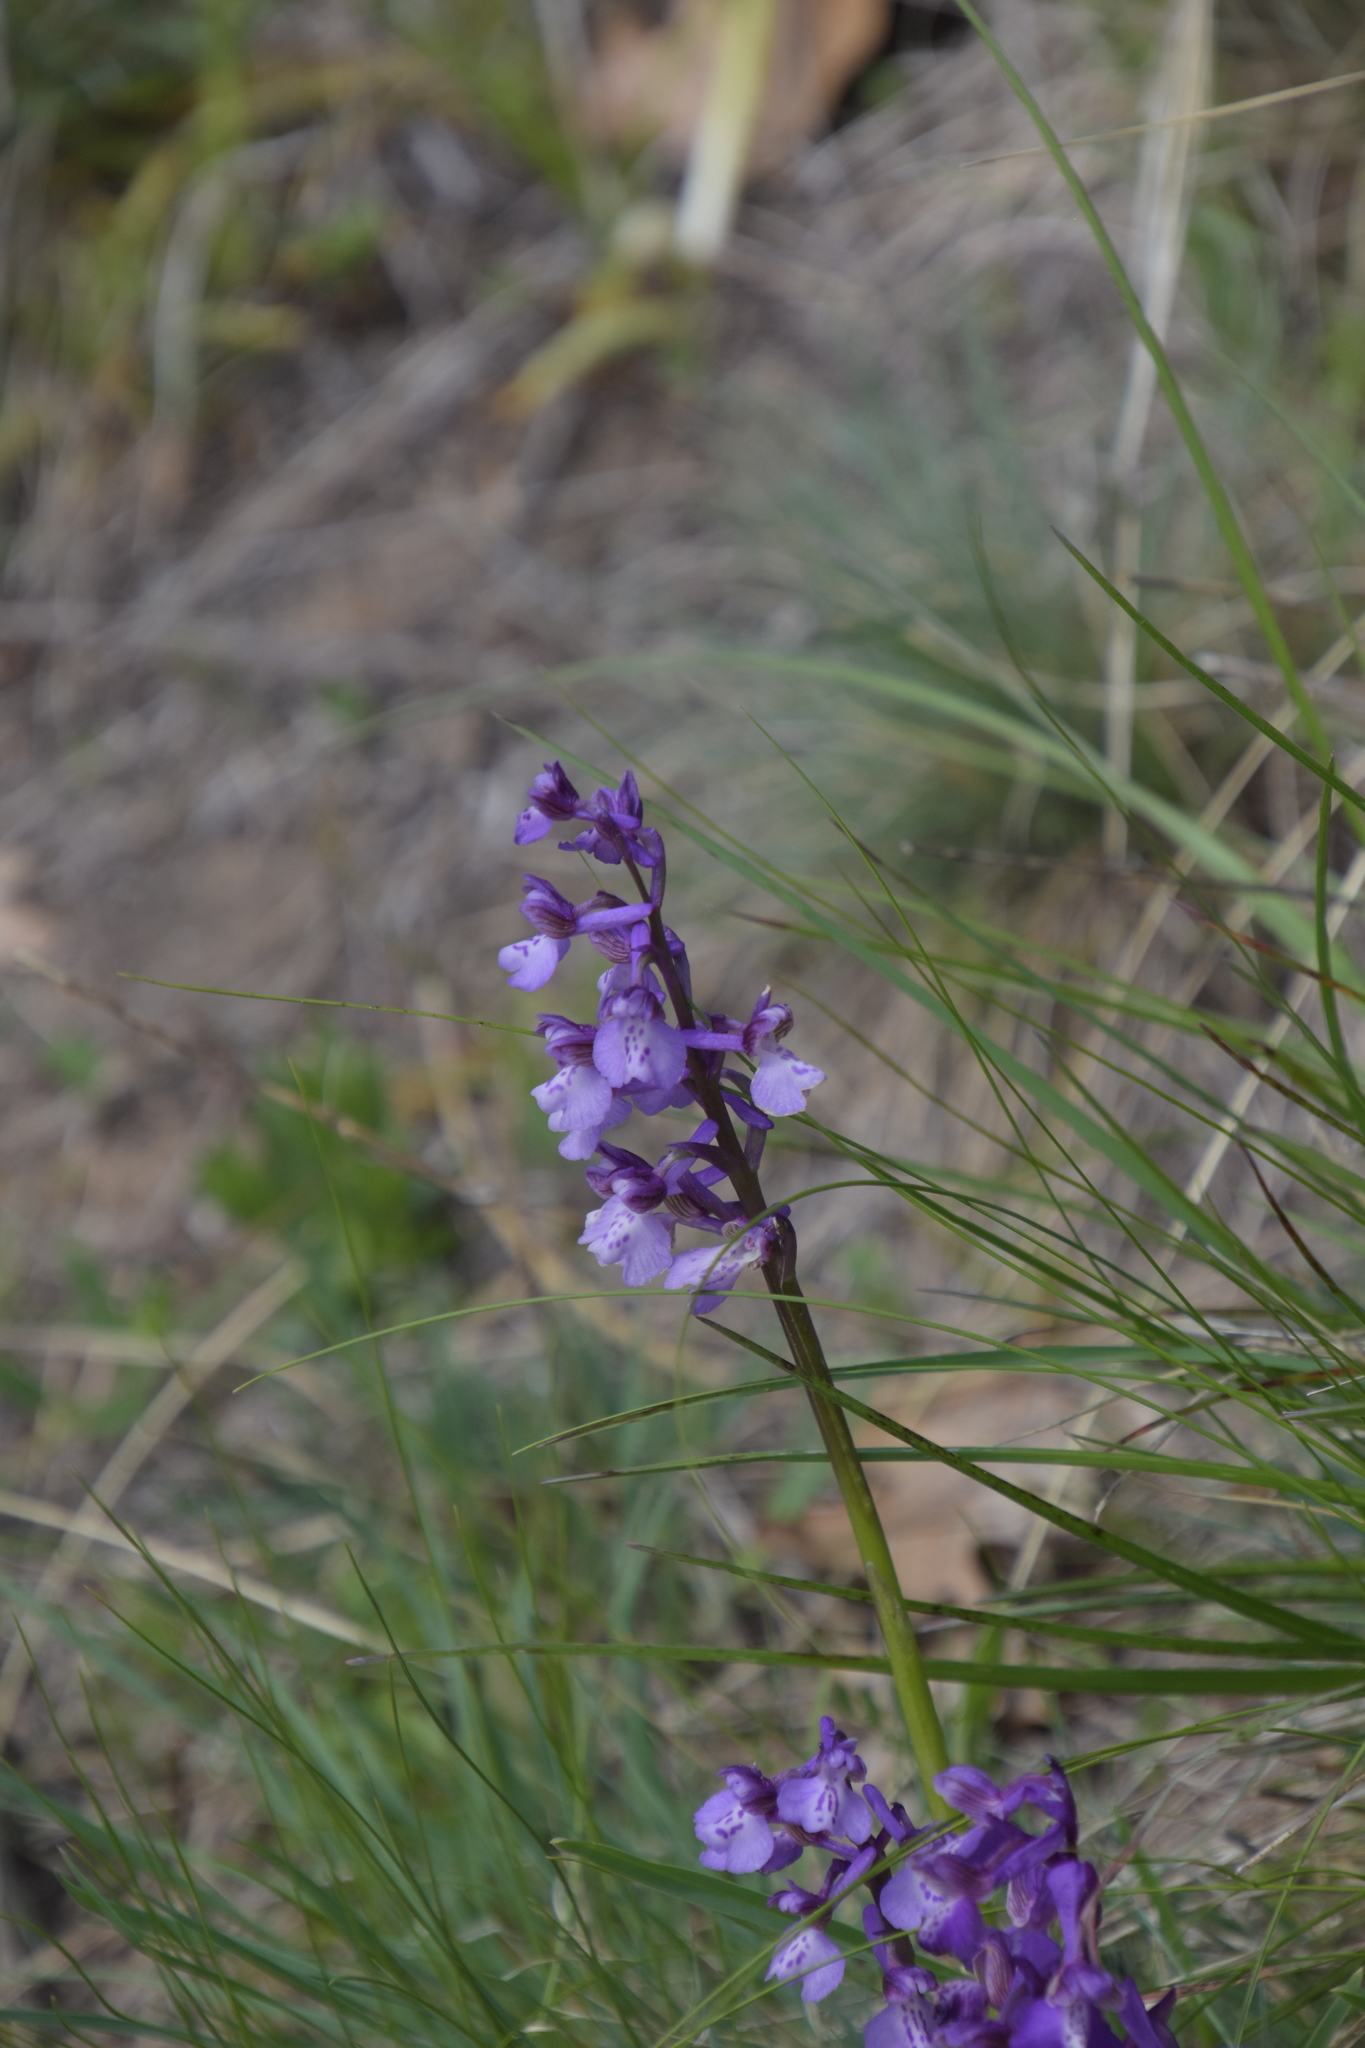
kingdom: Plantae
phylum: Tracheophyta
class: Liliopsida
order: Asparagales
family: Orchidaceae
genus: Anacamptis
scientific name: Anacamptis morio
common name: Green-winged orchid
